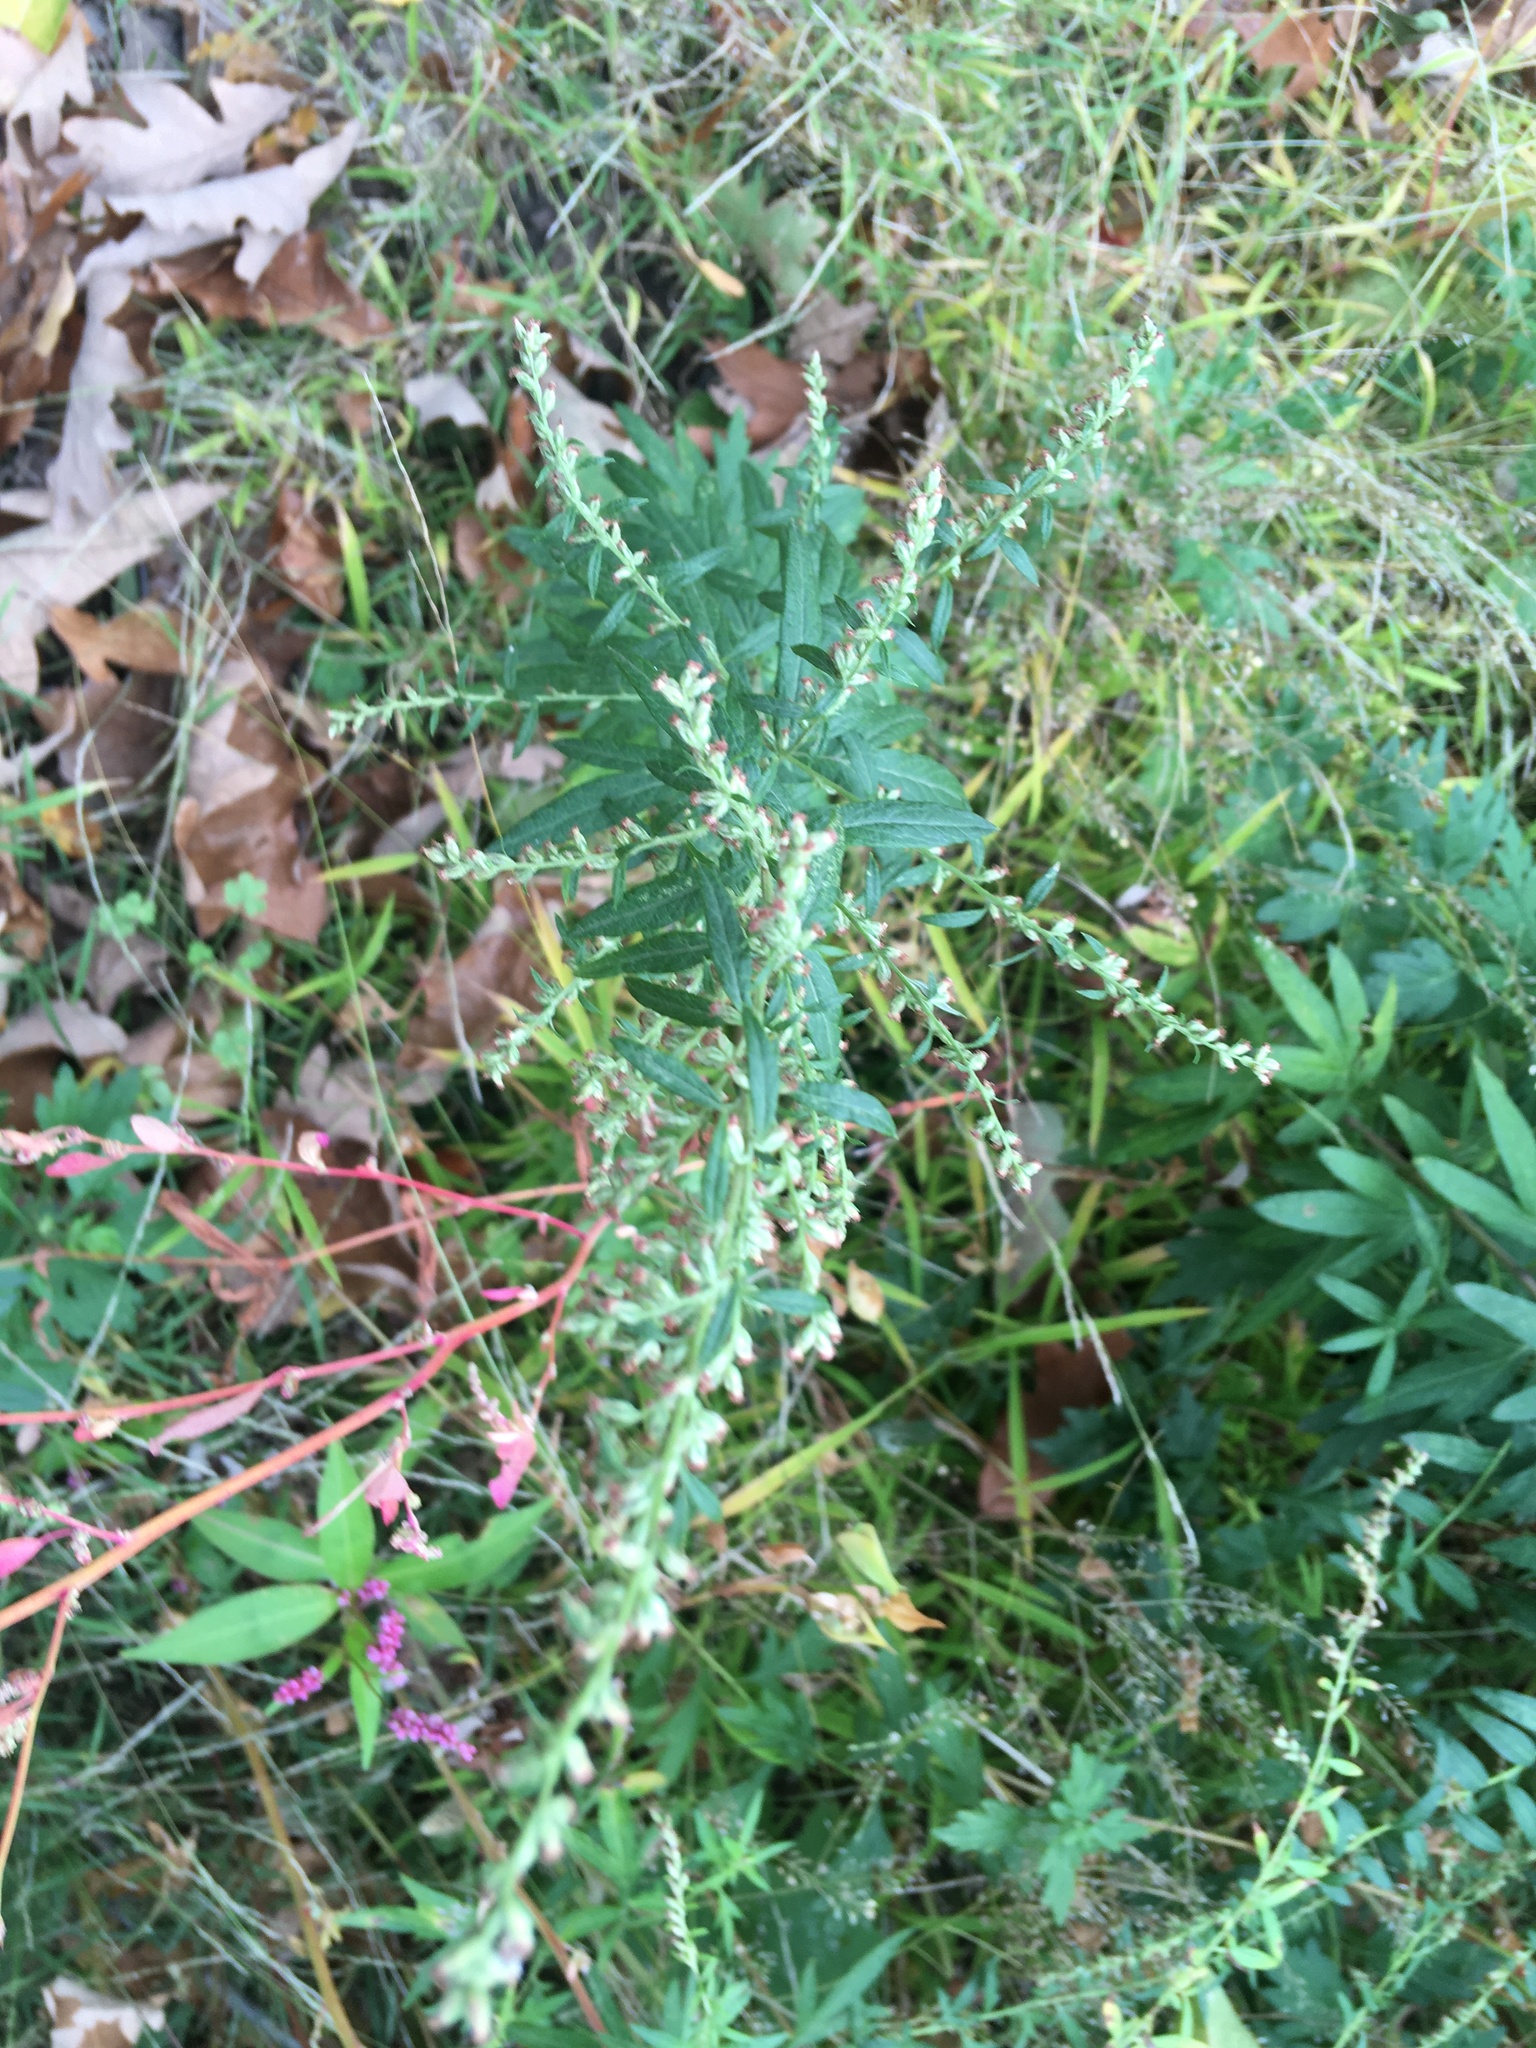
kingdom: Plantae
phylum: Tracheophyta
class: Magnoliopsida
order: Asterales
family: Asteraceae
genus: Artemisia
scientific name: Artemisia vulgaris
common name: Mugwort
